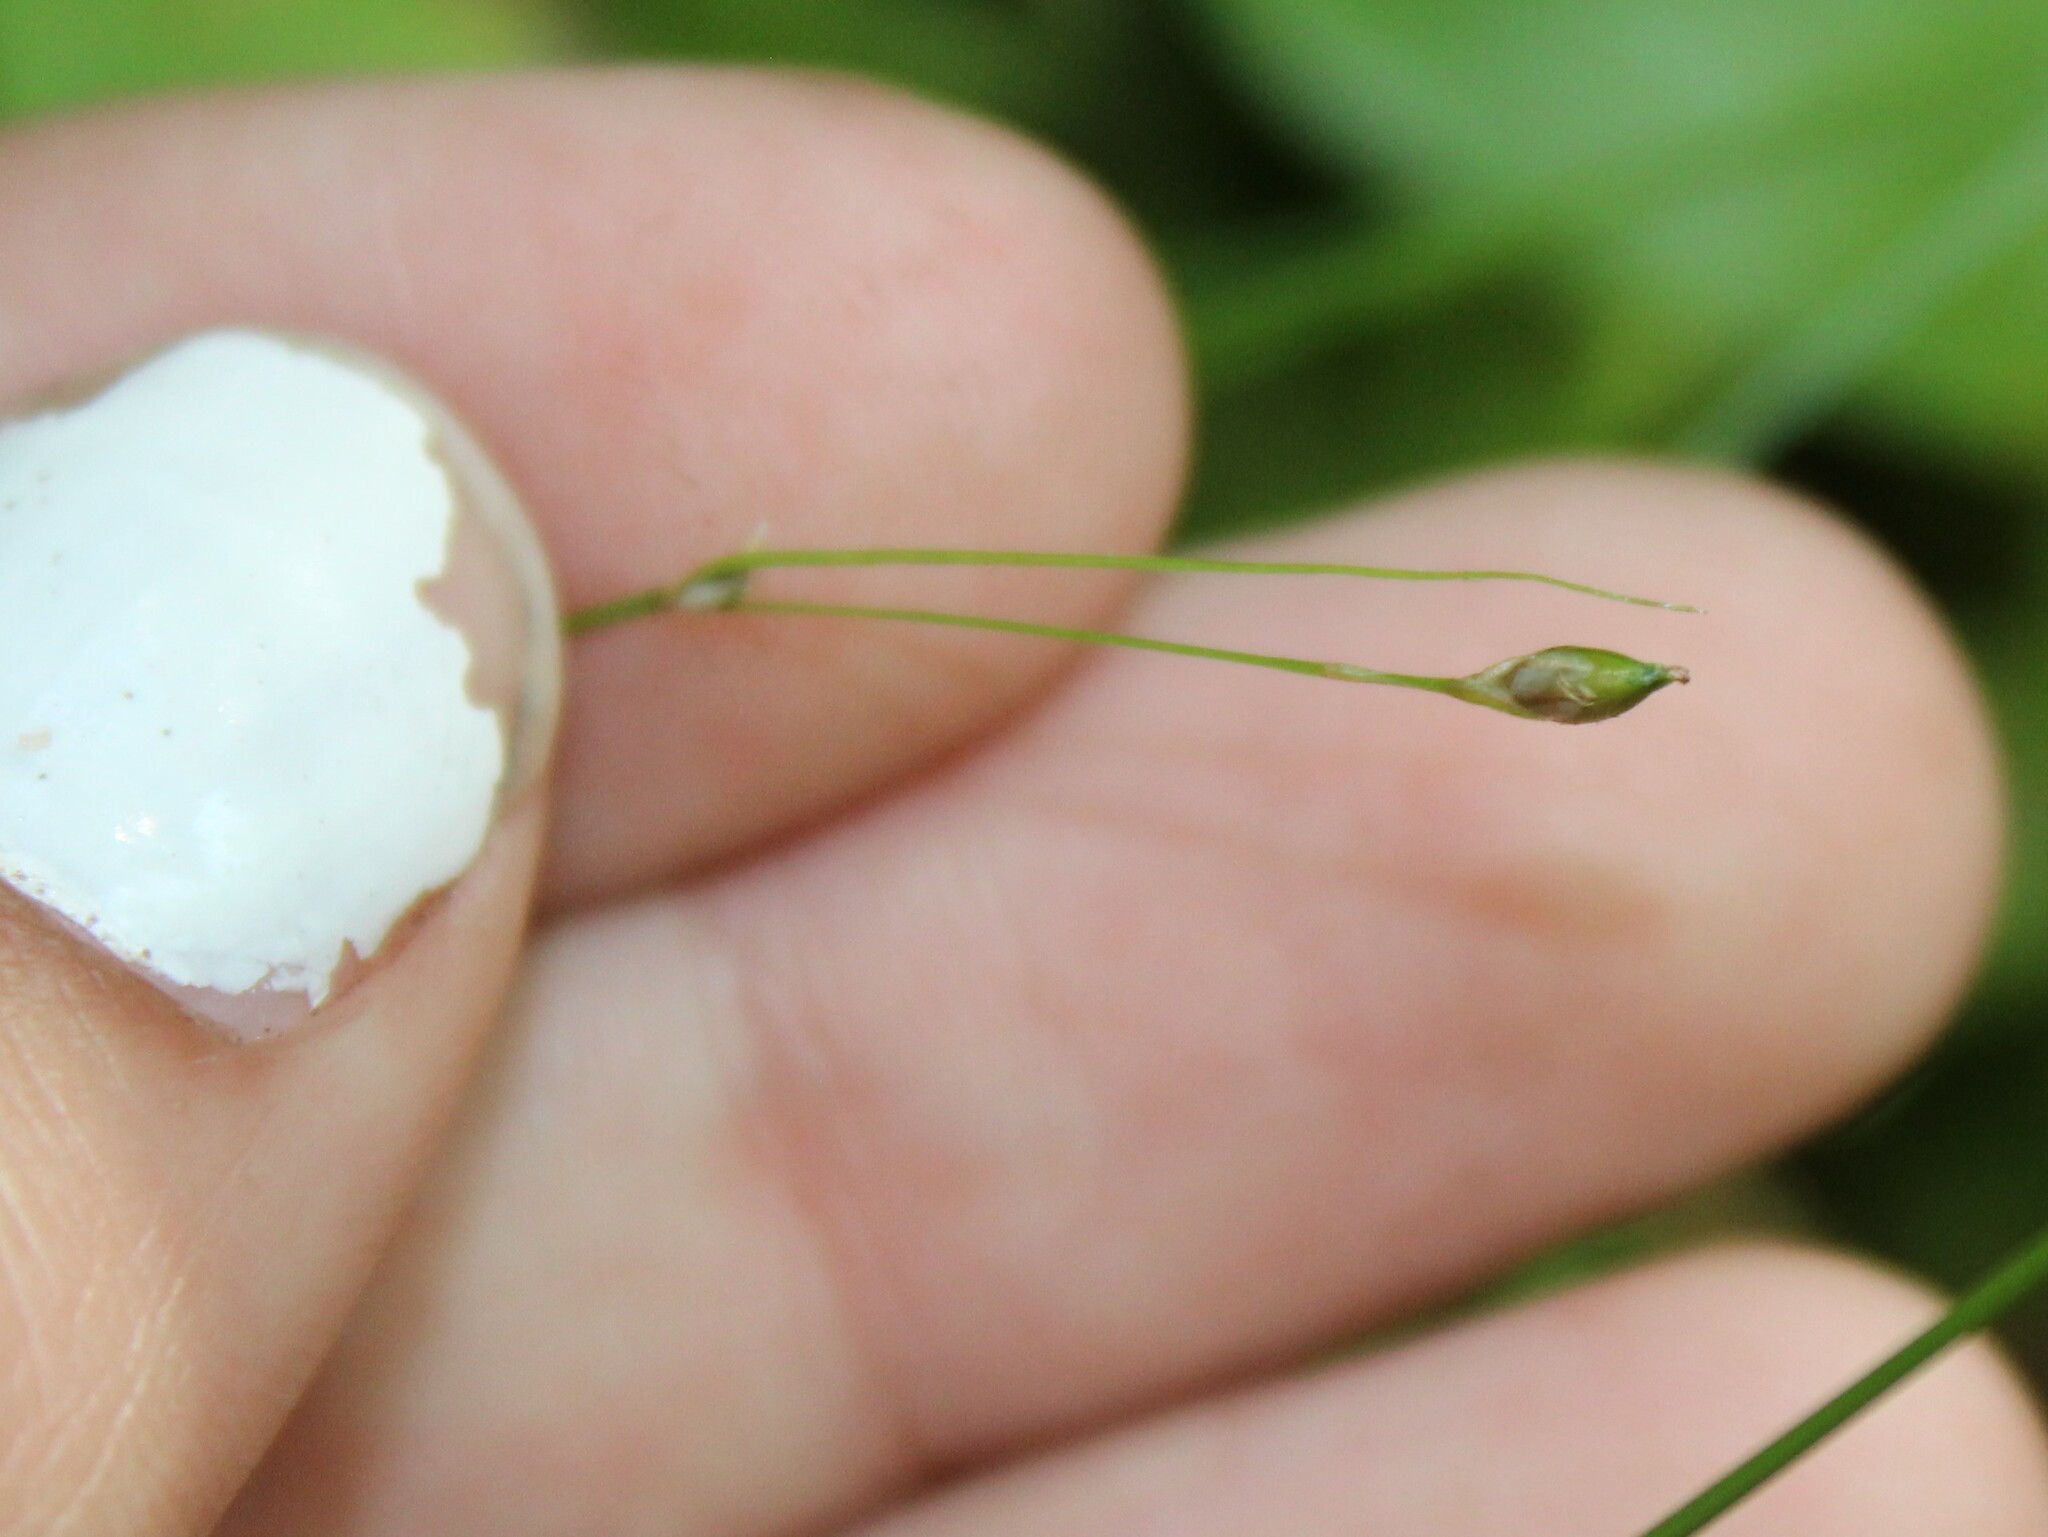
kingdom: Plantae
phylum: Tracheophyta
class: Liliopsida
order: Poales
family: Cyperaceae
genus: Carex
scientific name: Carex trisperma
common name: Three-seeded sedge
